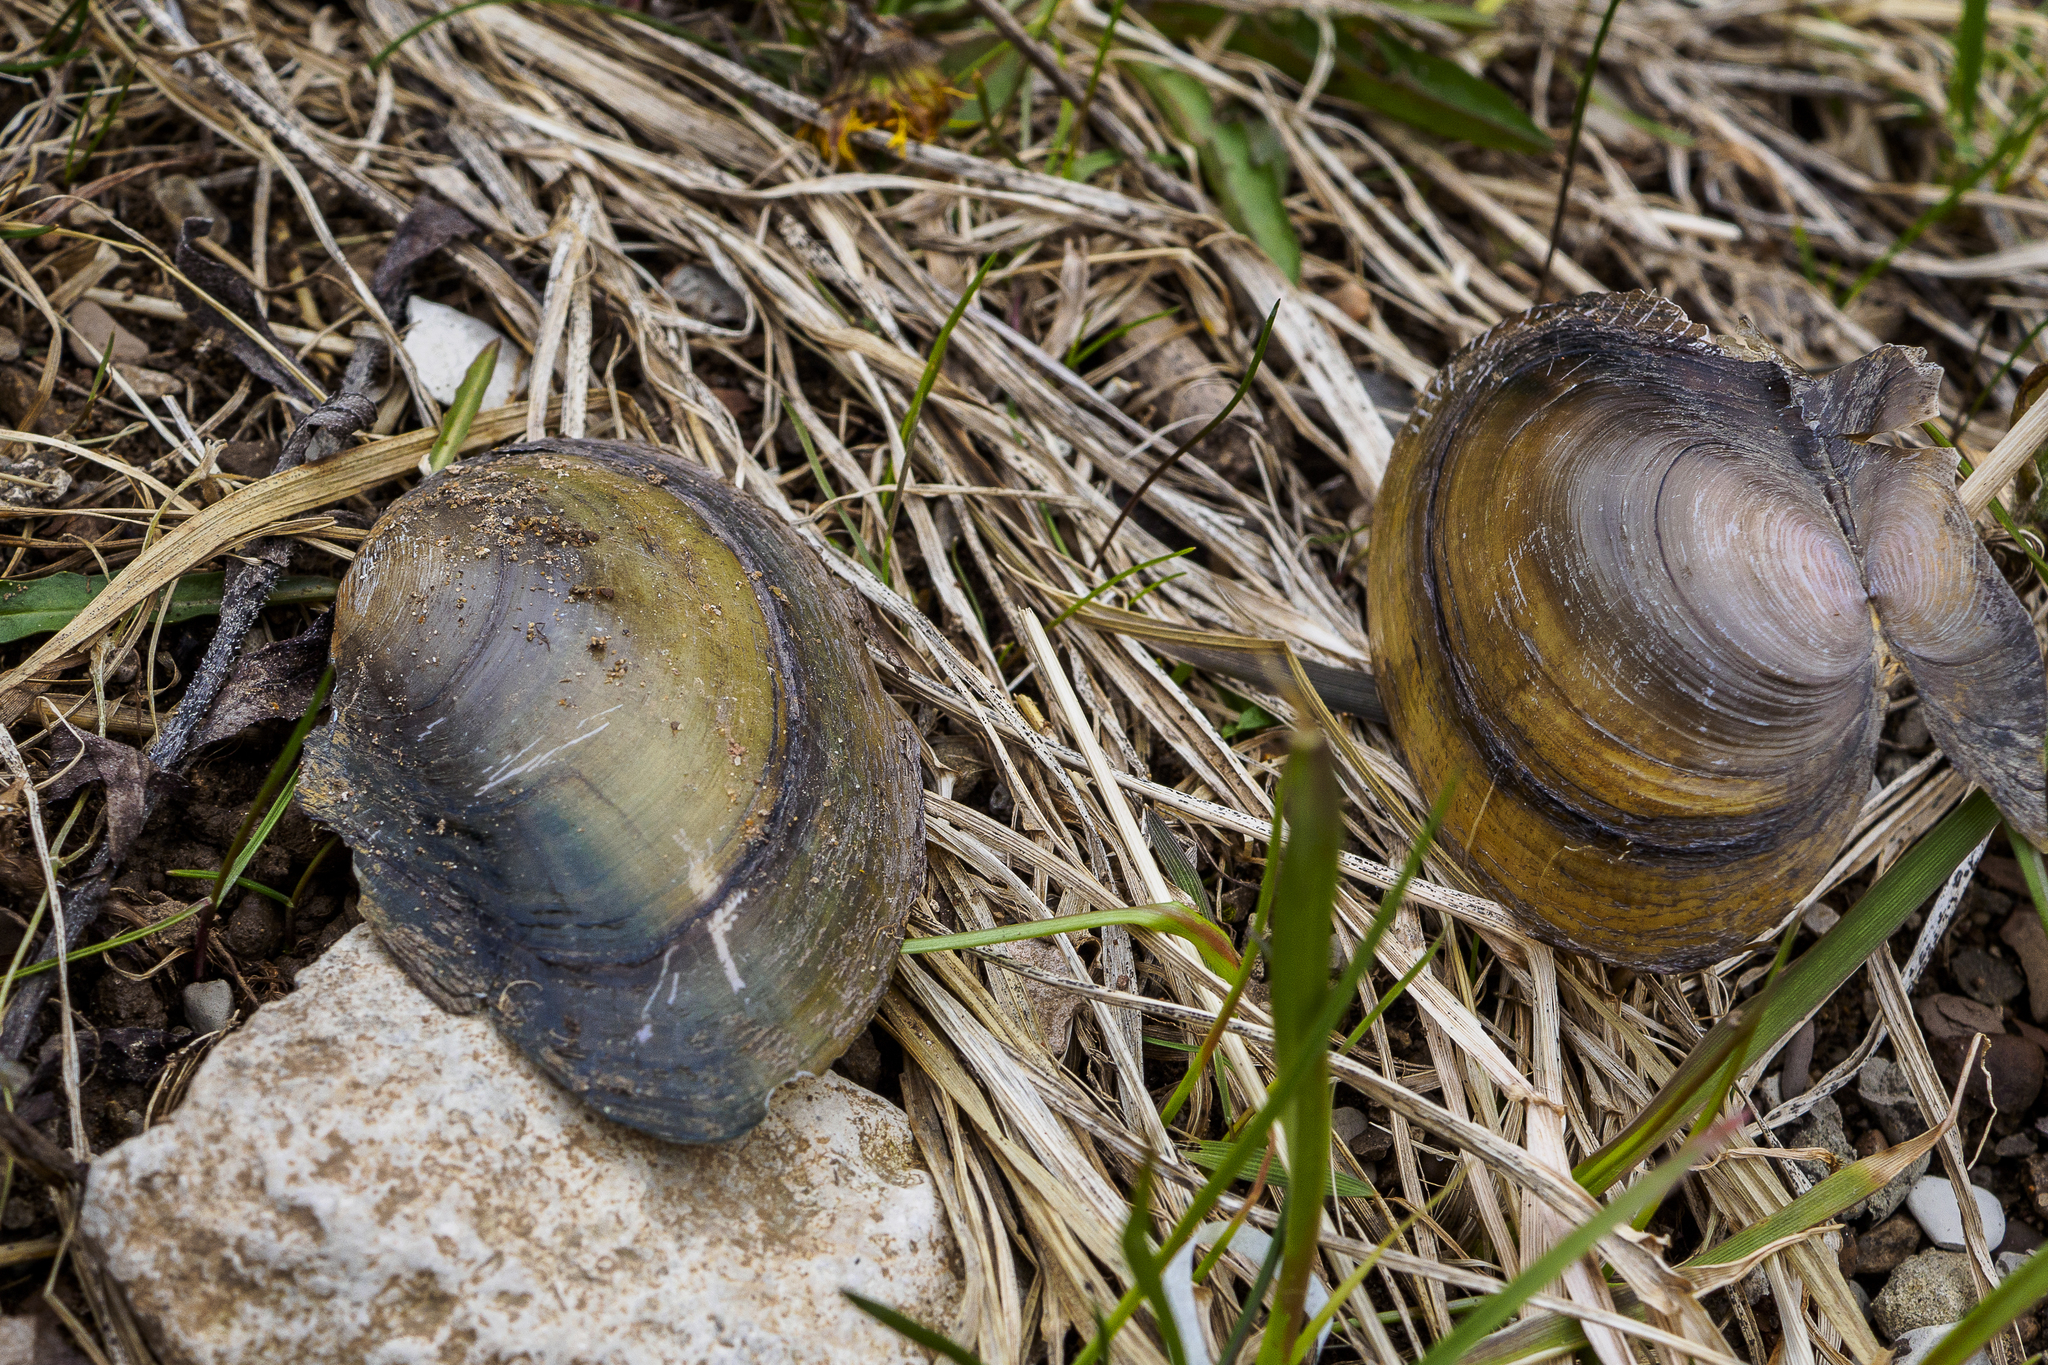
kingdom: Animalia
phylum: Mollusca
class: Bivalvia
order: Unionida
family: Unionidae
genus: Anodonta
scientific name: Anodonta anatina
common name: Duck mussel
